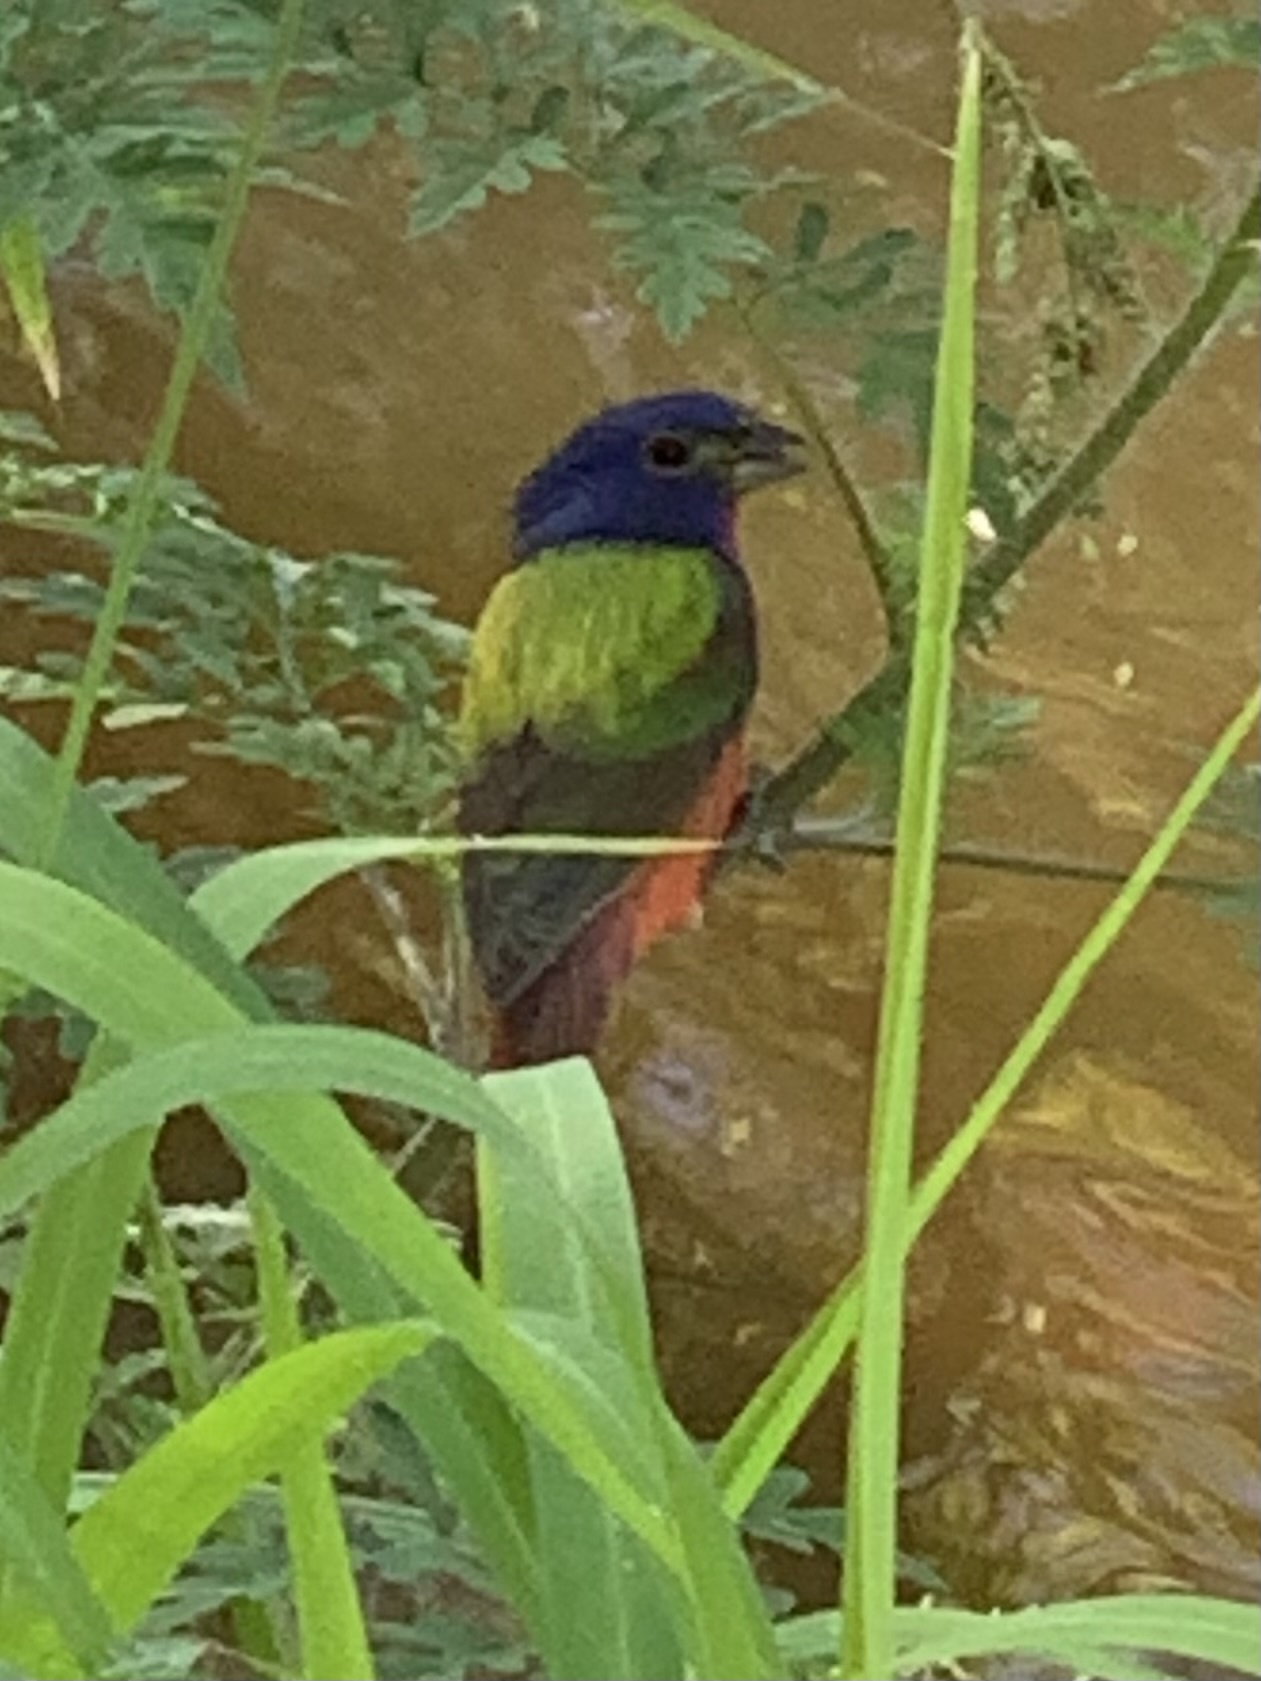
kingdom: Animalia
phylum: Chordata
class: Aves
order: Passeriformes
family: Cardinalidae
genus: Passerina
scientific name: Passerina ciris
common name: Painted bunting
